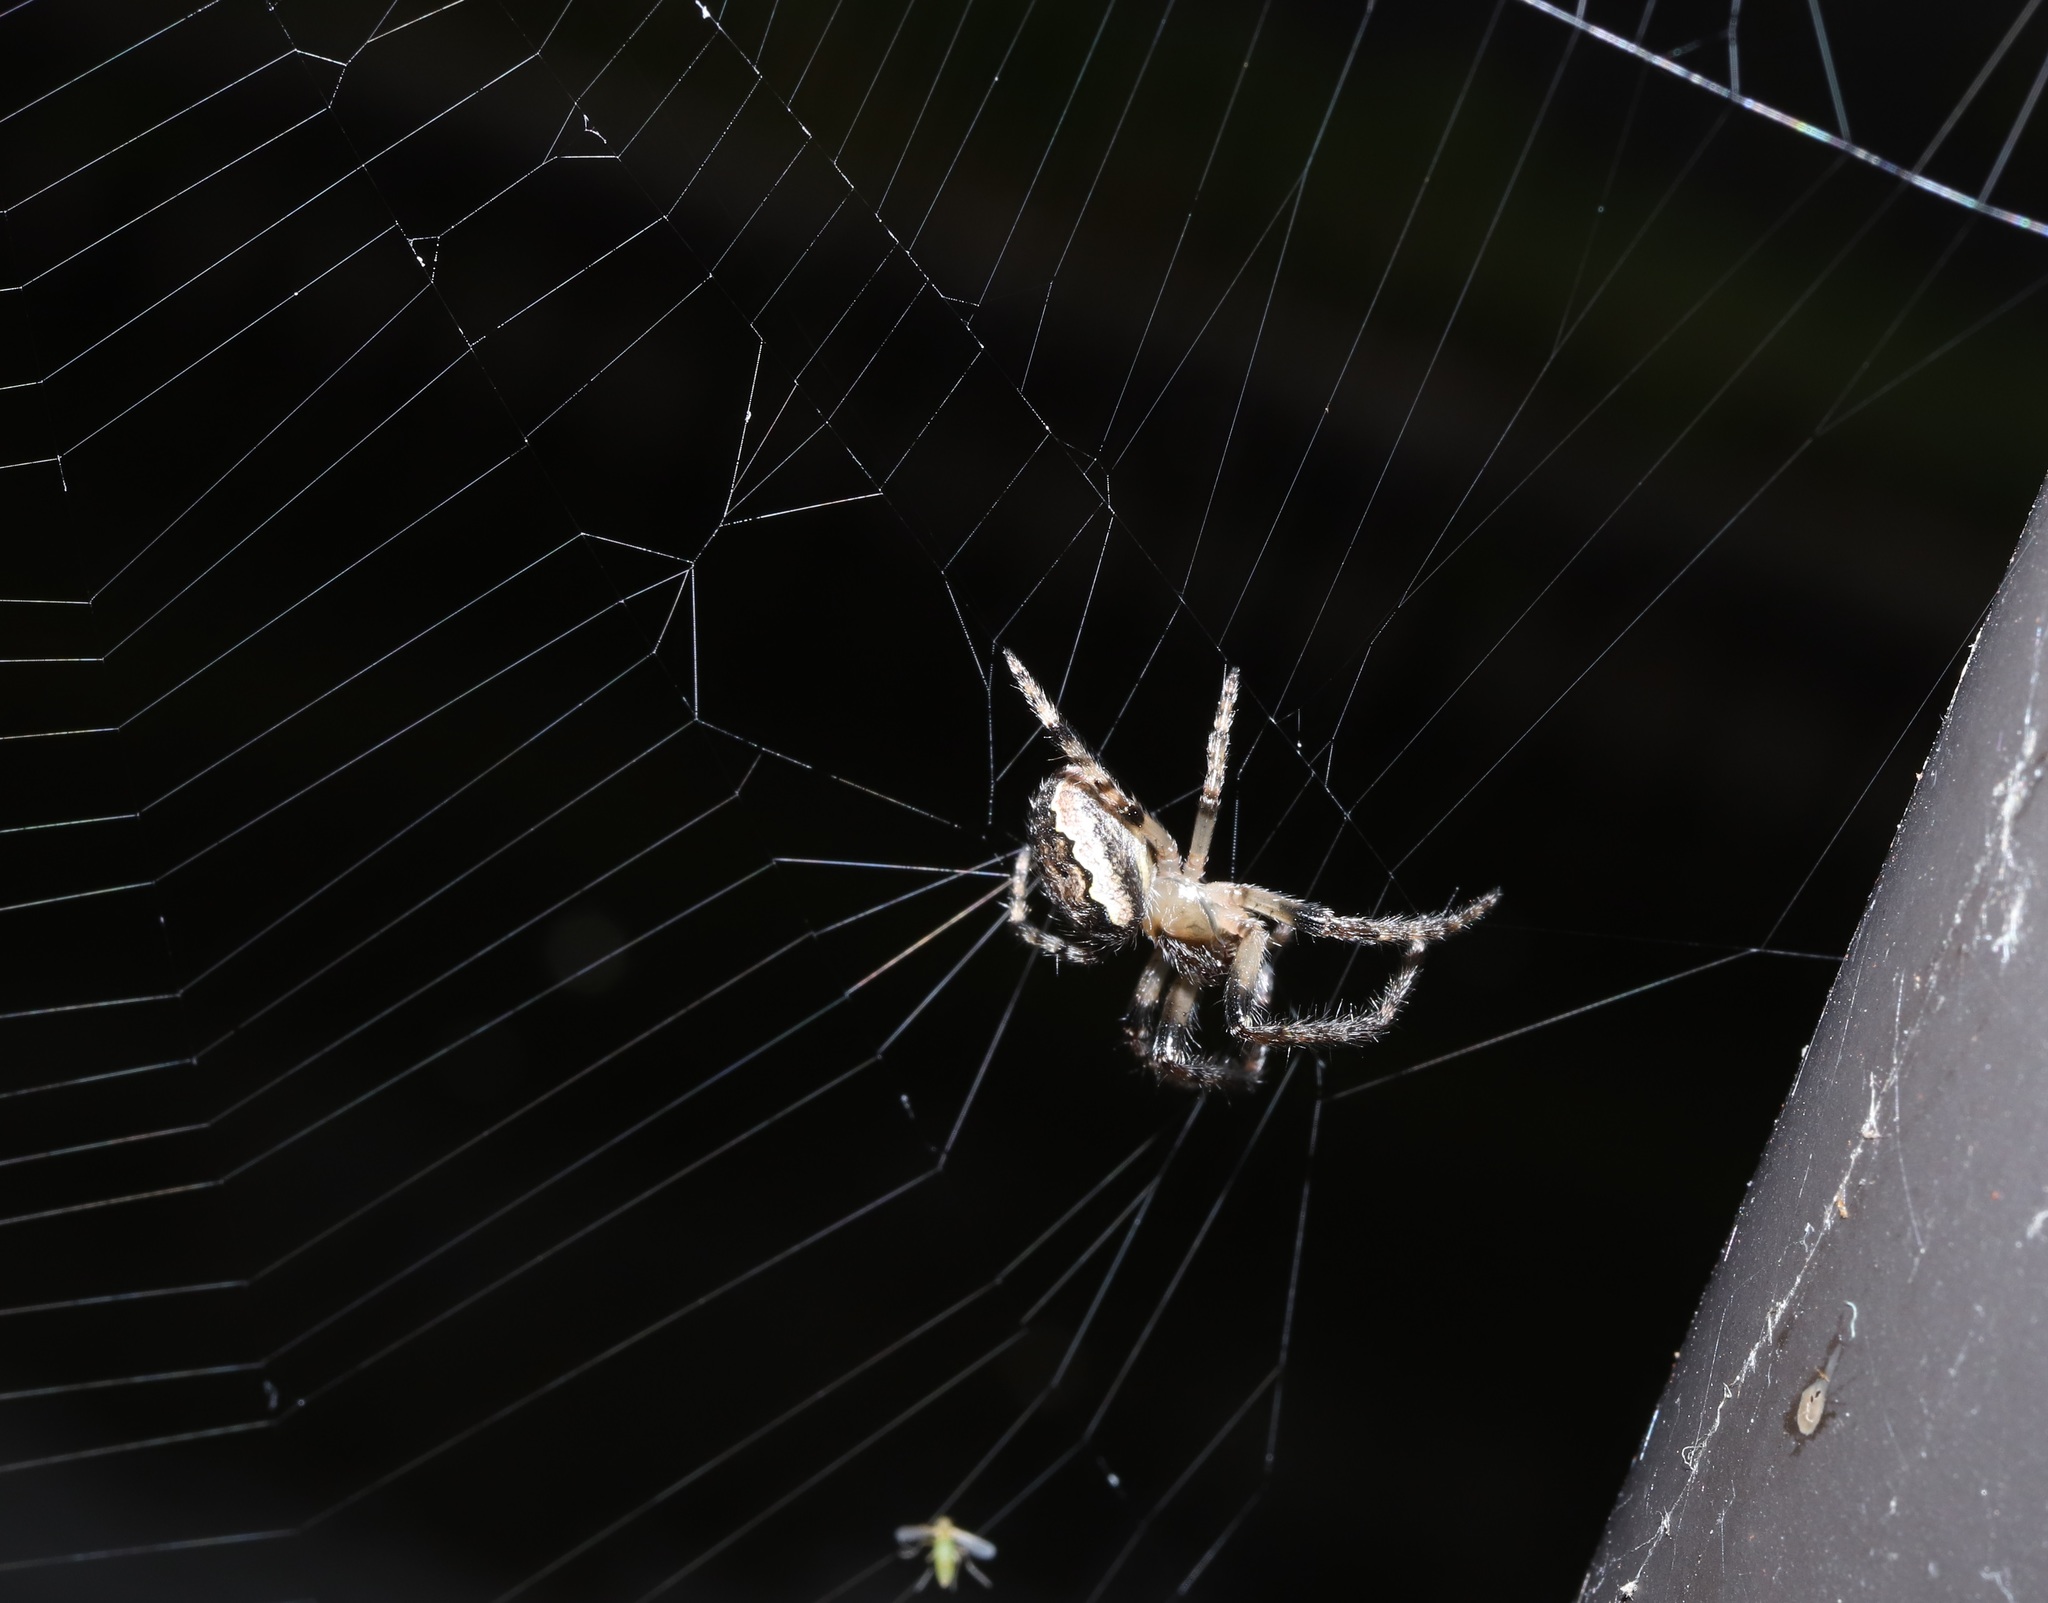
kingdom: Animalia
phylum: Arthropoda
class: Arachnida
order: Araneae
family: Araneidae
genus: Yaginumia
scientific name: Yaginumia sia
